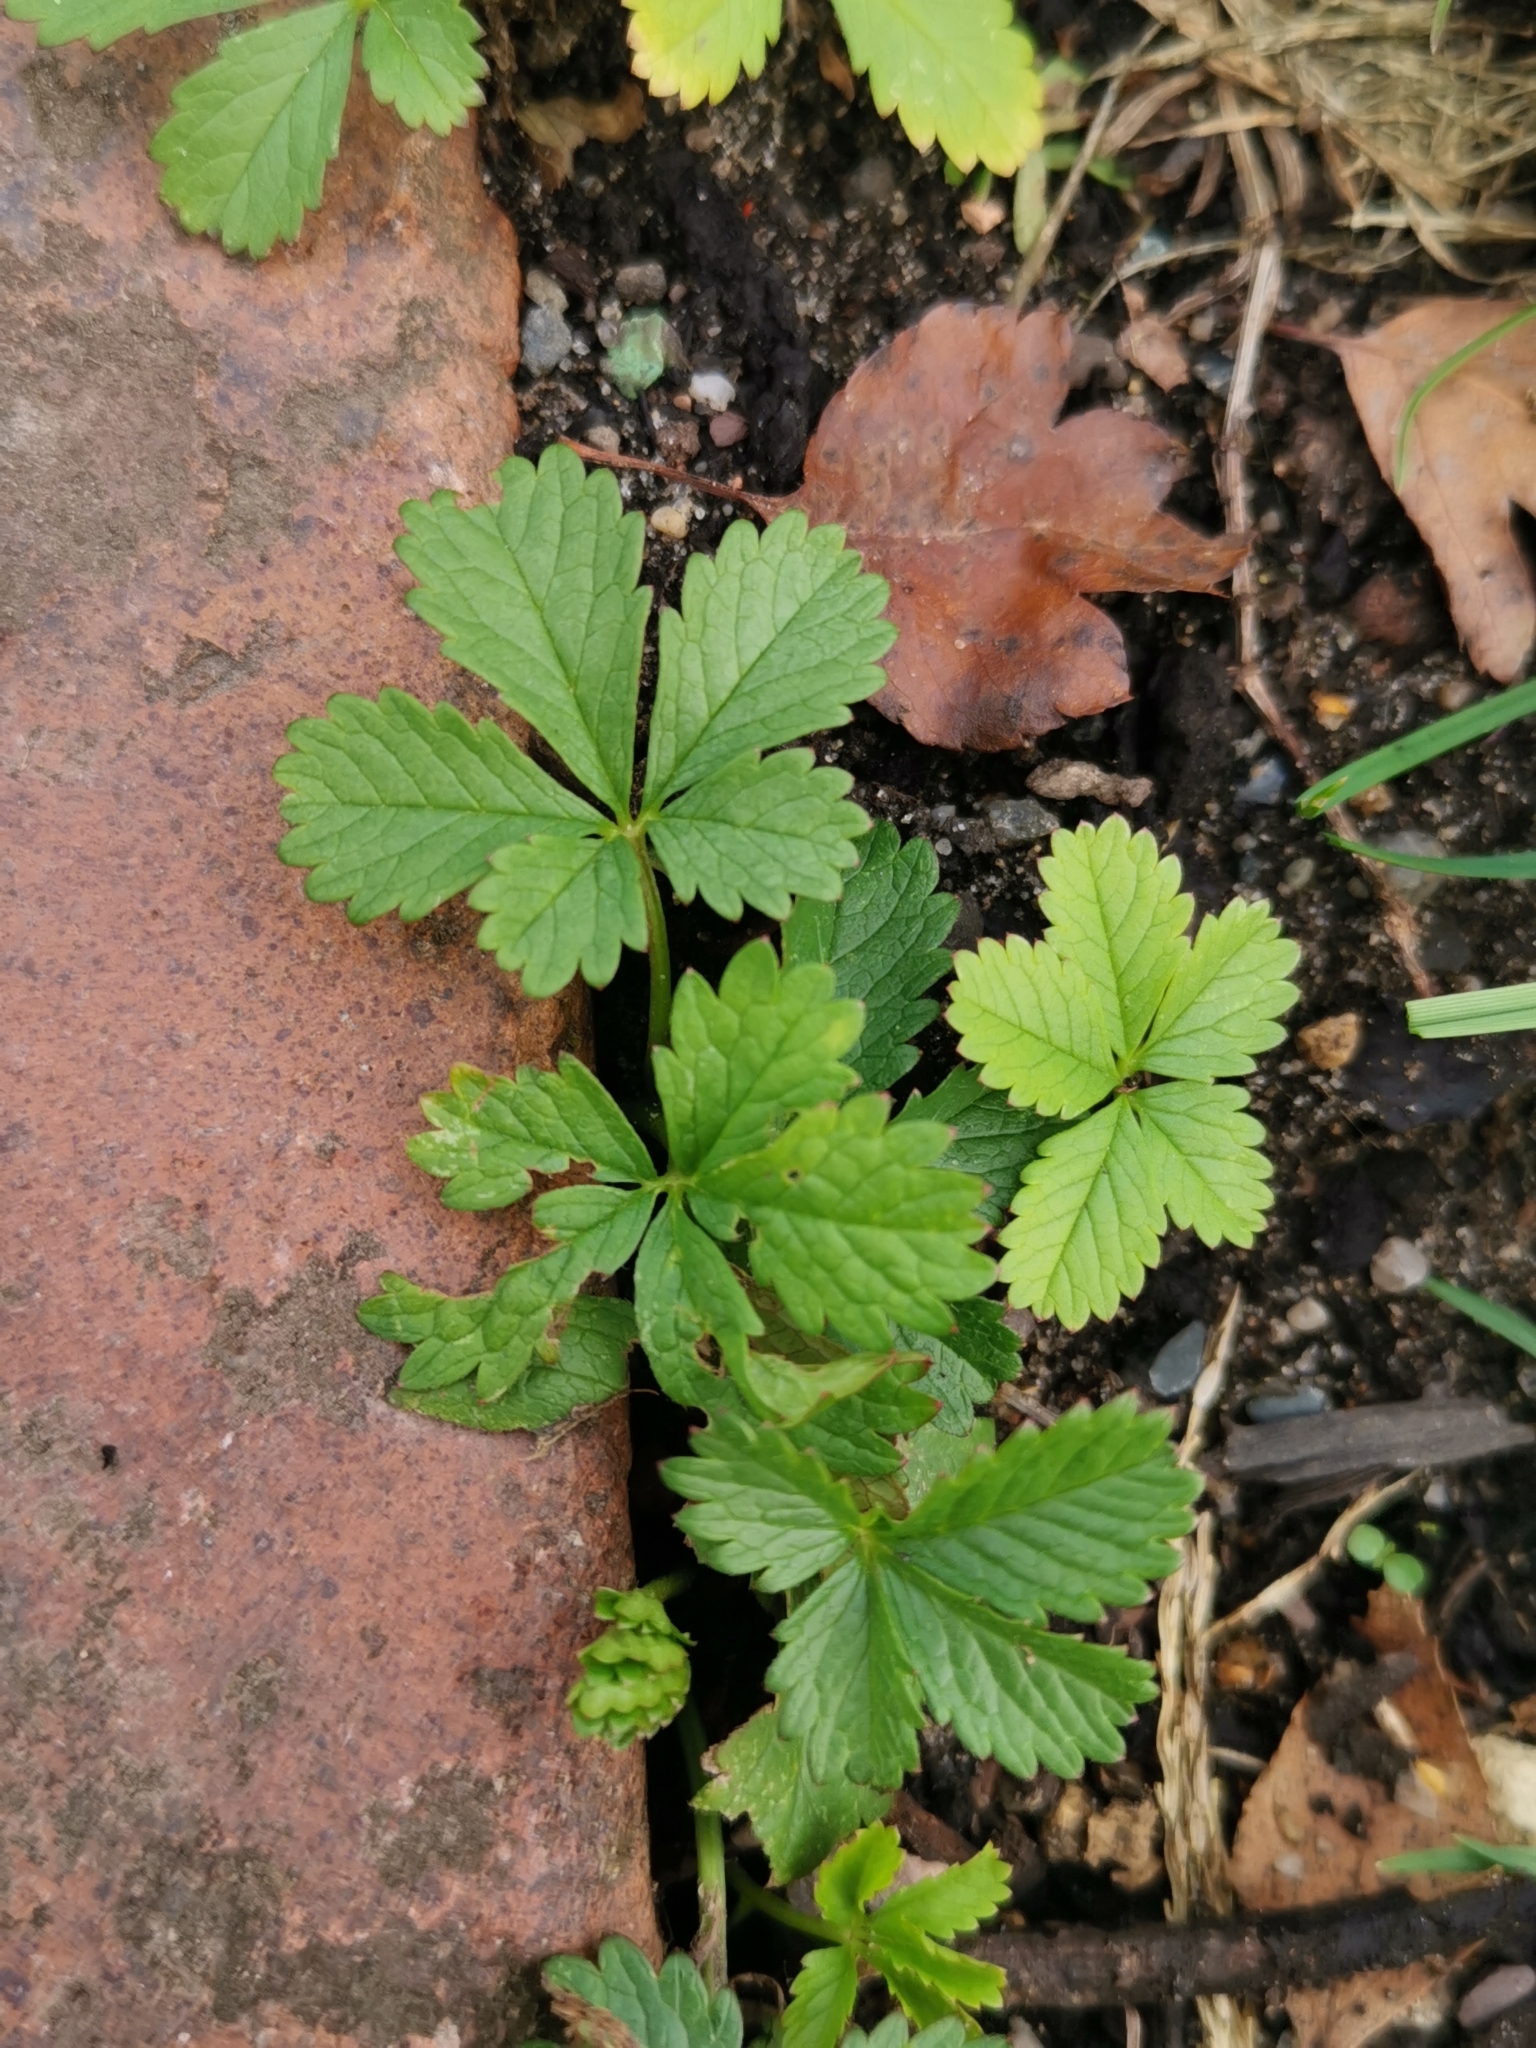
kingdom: Plantae
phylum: Tracheophyta
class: Magnoliopsida
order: Rosales
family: Rosaceae
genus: Potentilla
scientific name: Potentilla reptans
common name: Creeping cinquefoil
